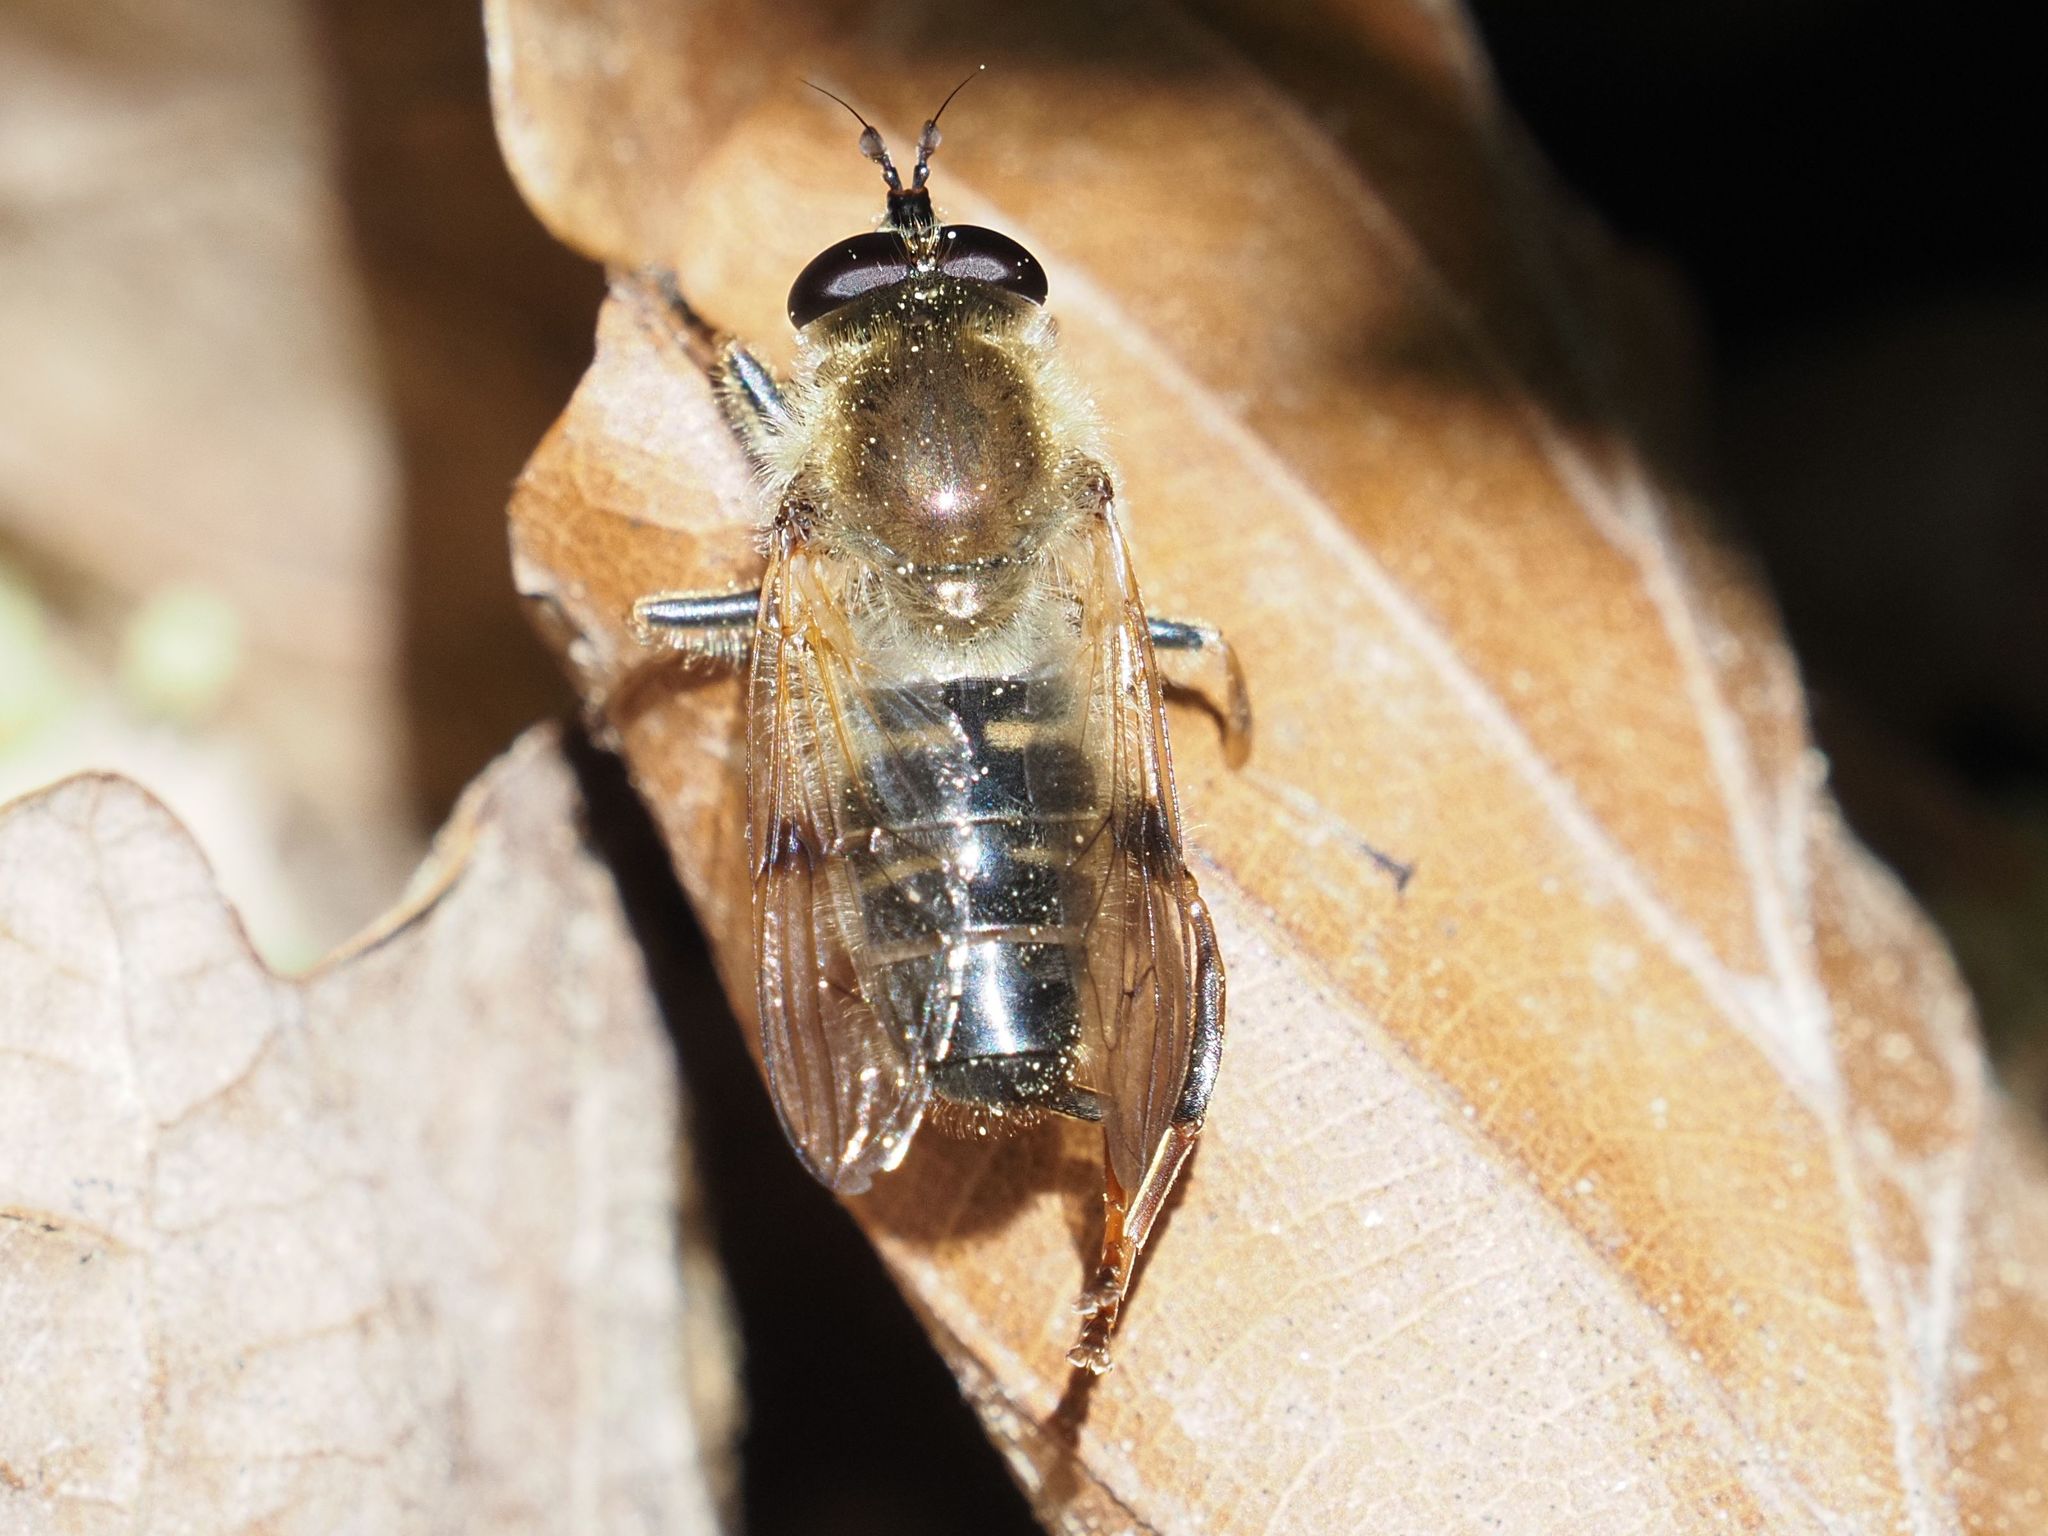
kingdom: Animalia
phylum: Arthropoda
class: Insecta
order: Diptera
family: Syrphidae
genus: Criorhina
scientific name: Criorhina asilica
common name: Pale-banded bear hoverfly
